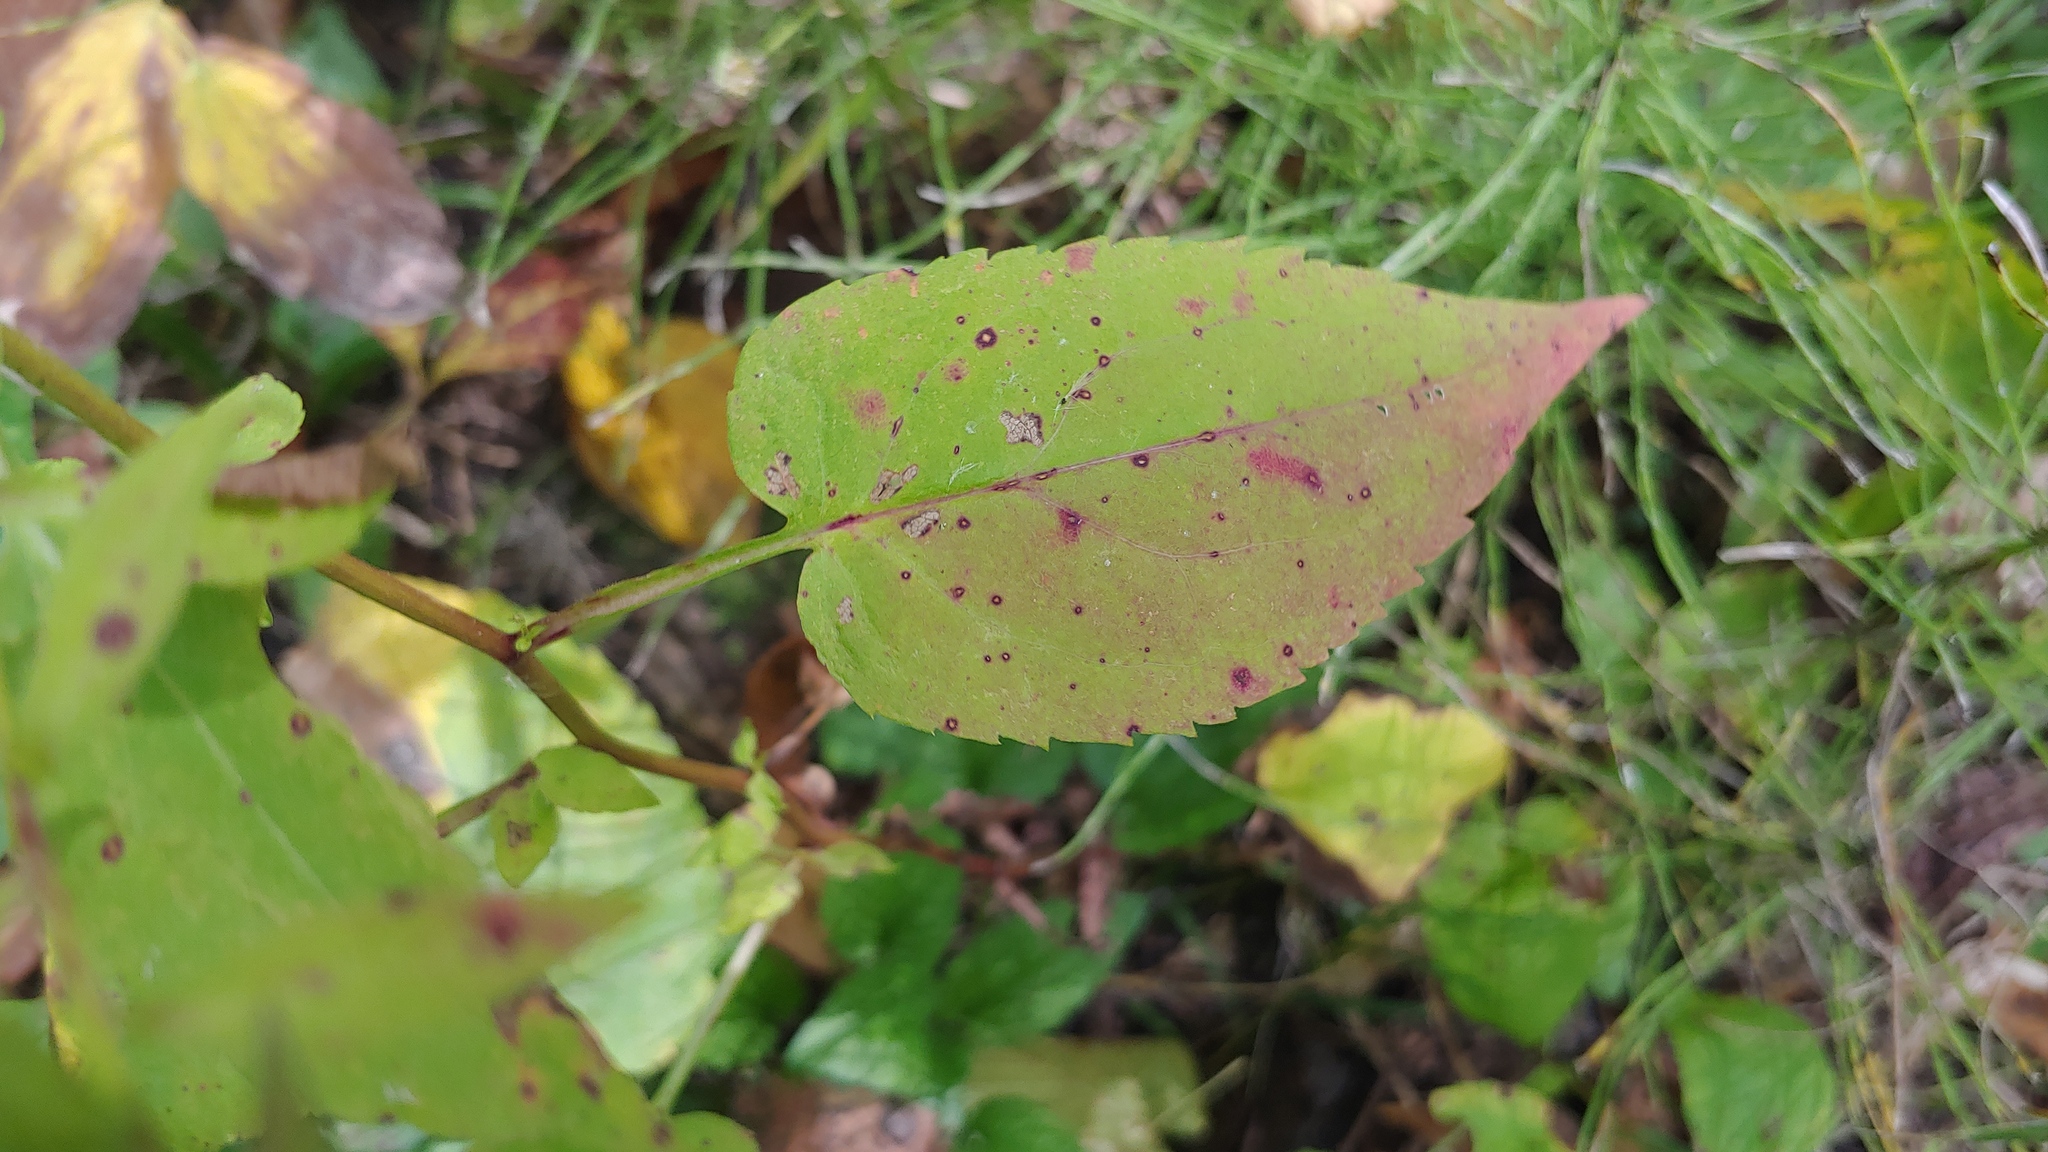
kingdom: Plantae
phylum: Tracheophyta
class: Magnoliopsida
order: Asterales
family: Asteraceae
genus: Symphyotrichum
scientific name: Symphyotrichum cordifolium
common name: Beeweed
